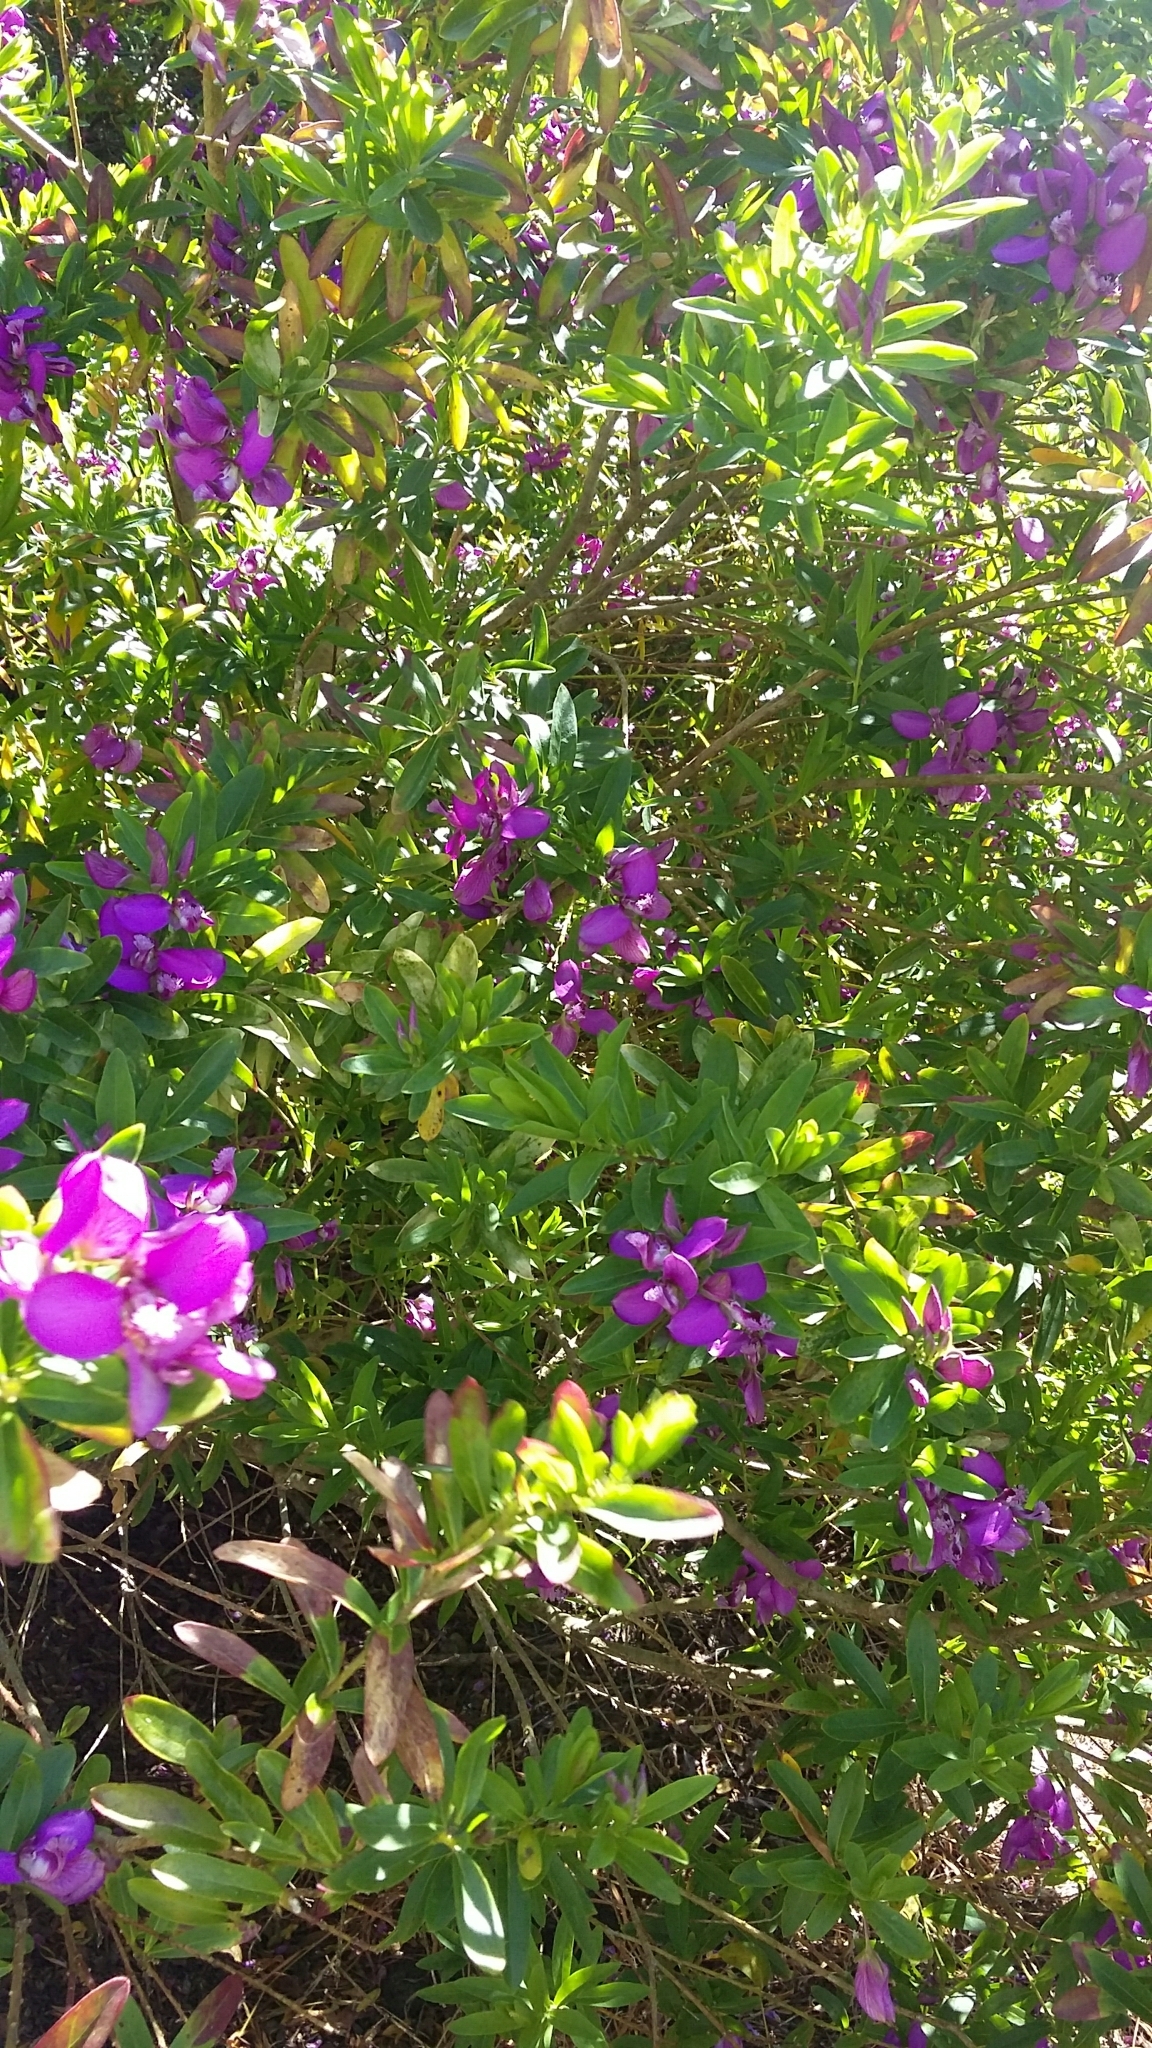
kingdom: Plantae
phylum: Tracheophyta
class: Magnoliopsida
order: Fabales
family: Polygalaceae
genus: Polygala
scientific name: Polygala myrtifolia
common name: Myrtle-leaf milkwort
